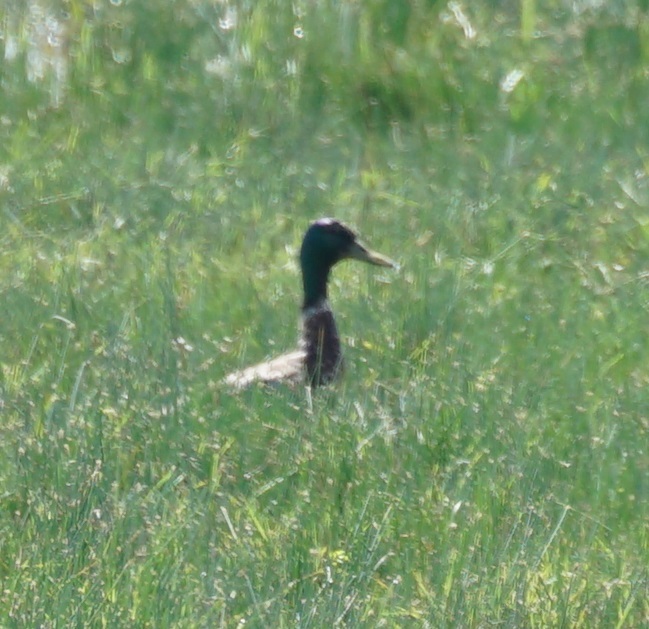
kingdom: Animalia
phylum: Chordata
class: Aves
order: Anseriformes
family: Anatidae
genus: Anas
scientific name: Anas platyrhynchos
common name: Mallard
